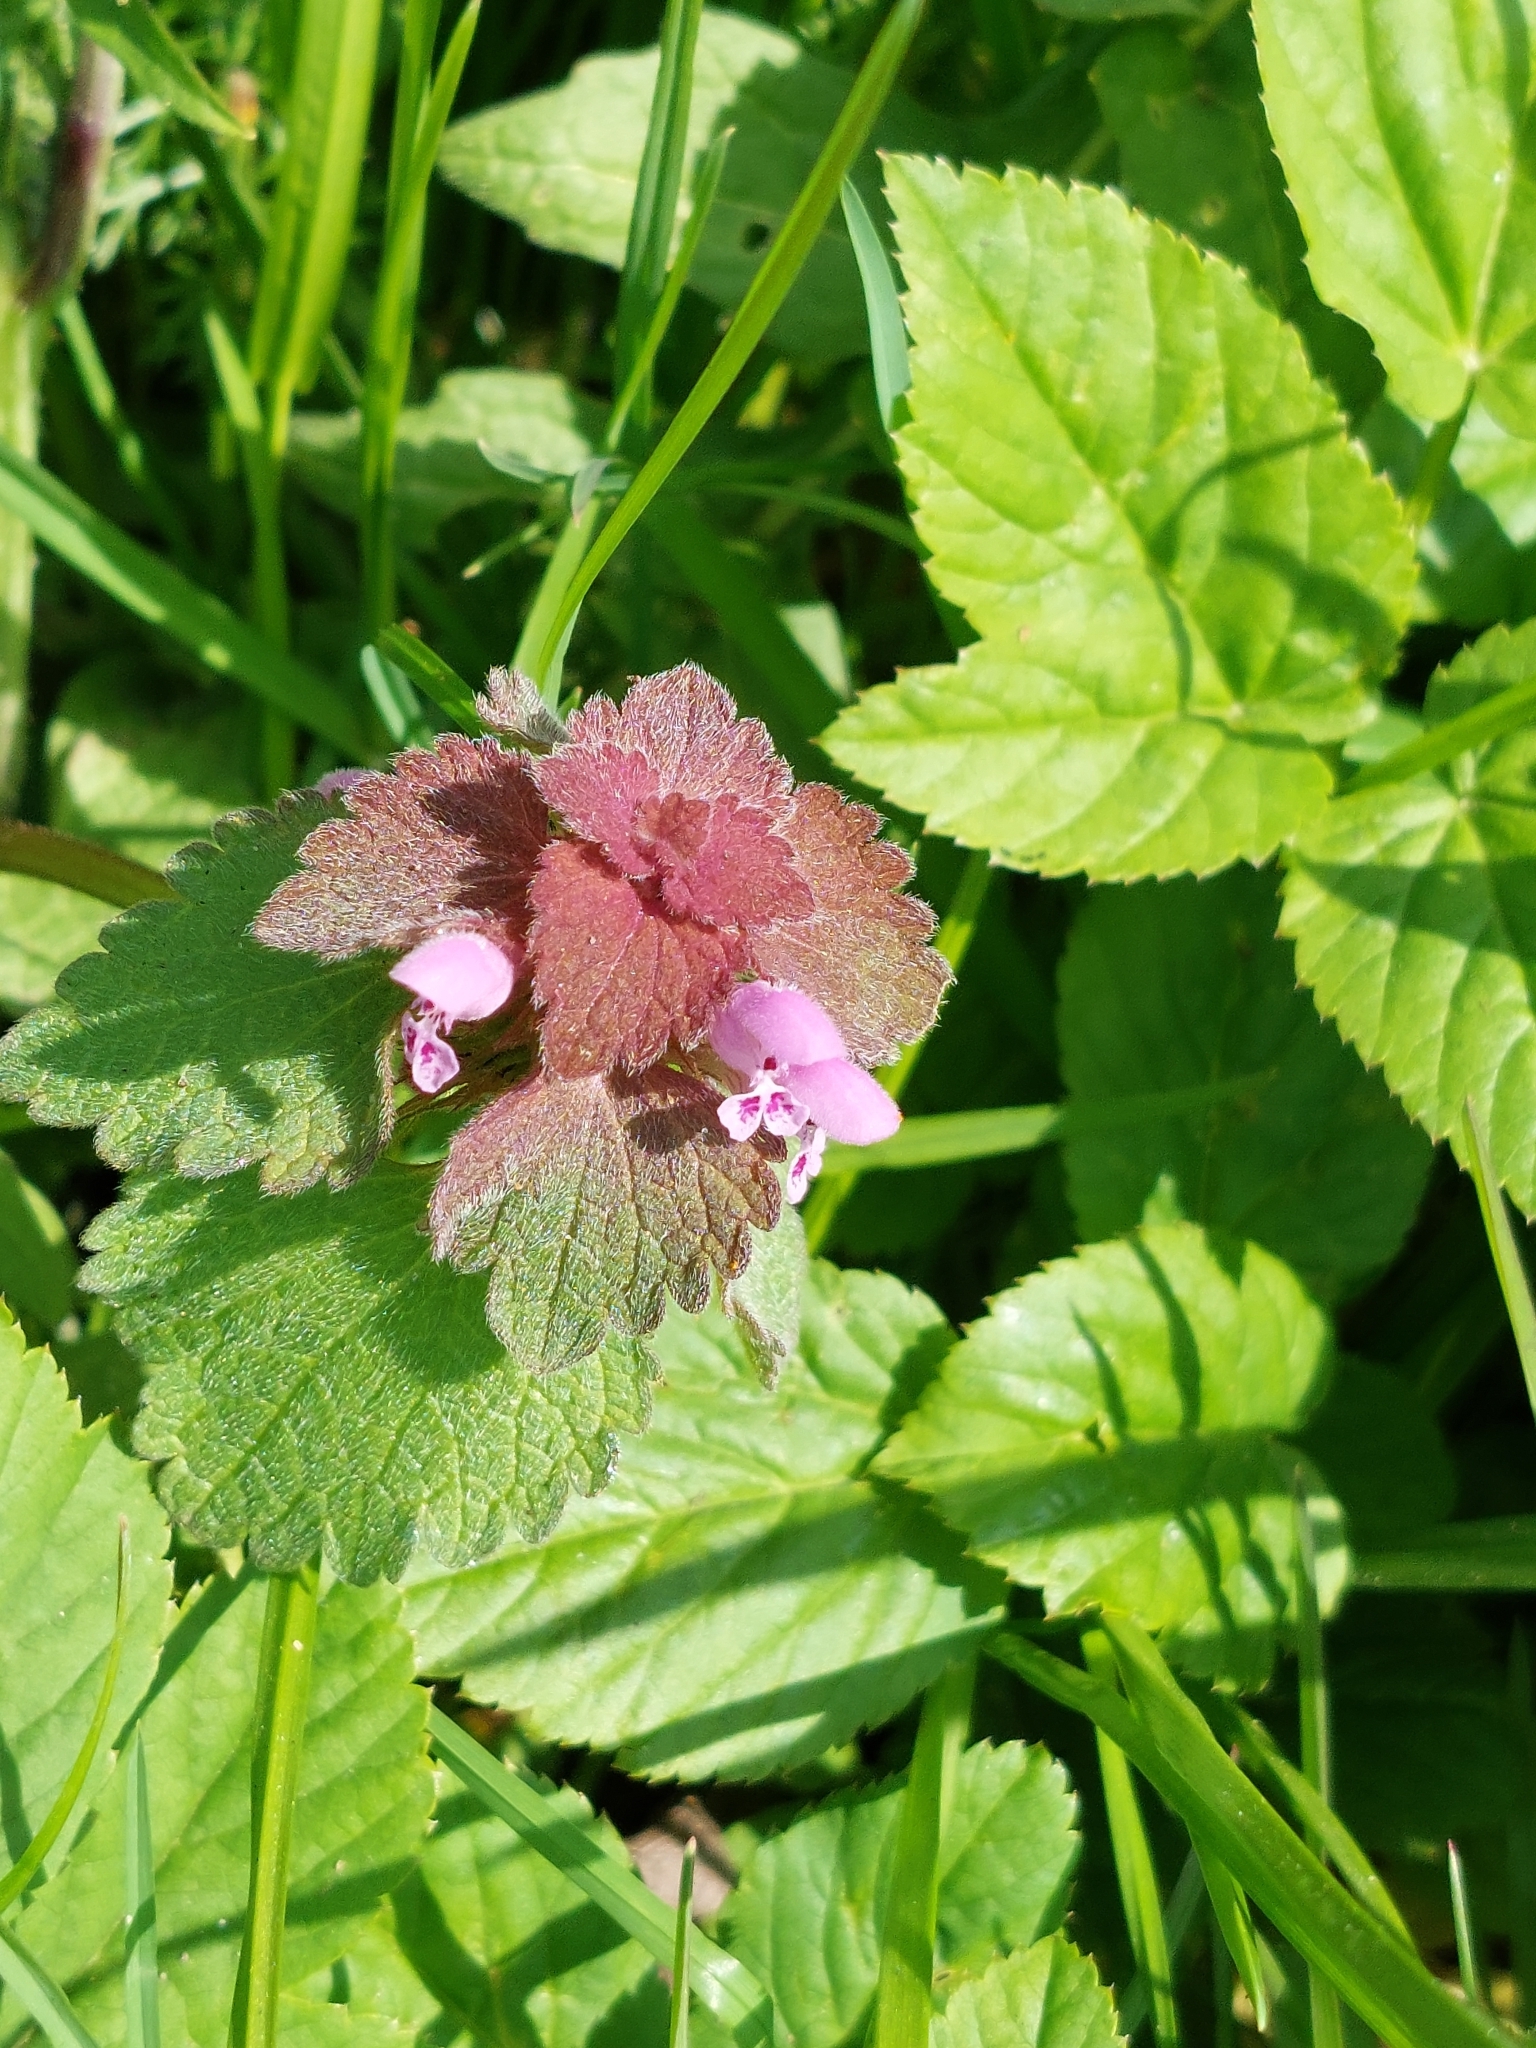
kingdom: Plantae
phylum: Tracheophyta
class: Magnoliopsida
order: Lamiales
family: Lamiaceae
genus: Lamium
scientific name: Lamium purpureum
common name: Red dead-nettle
